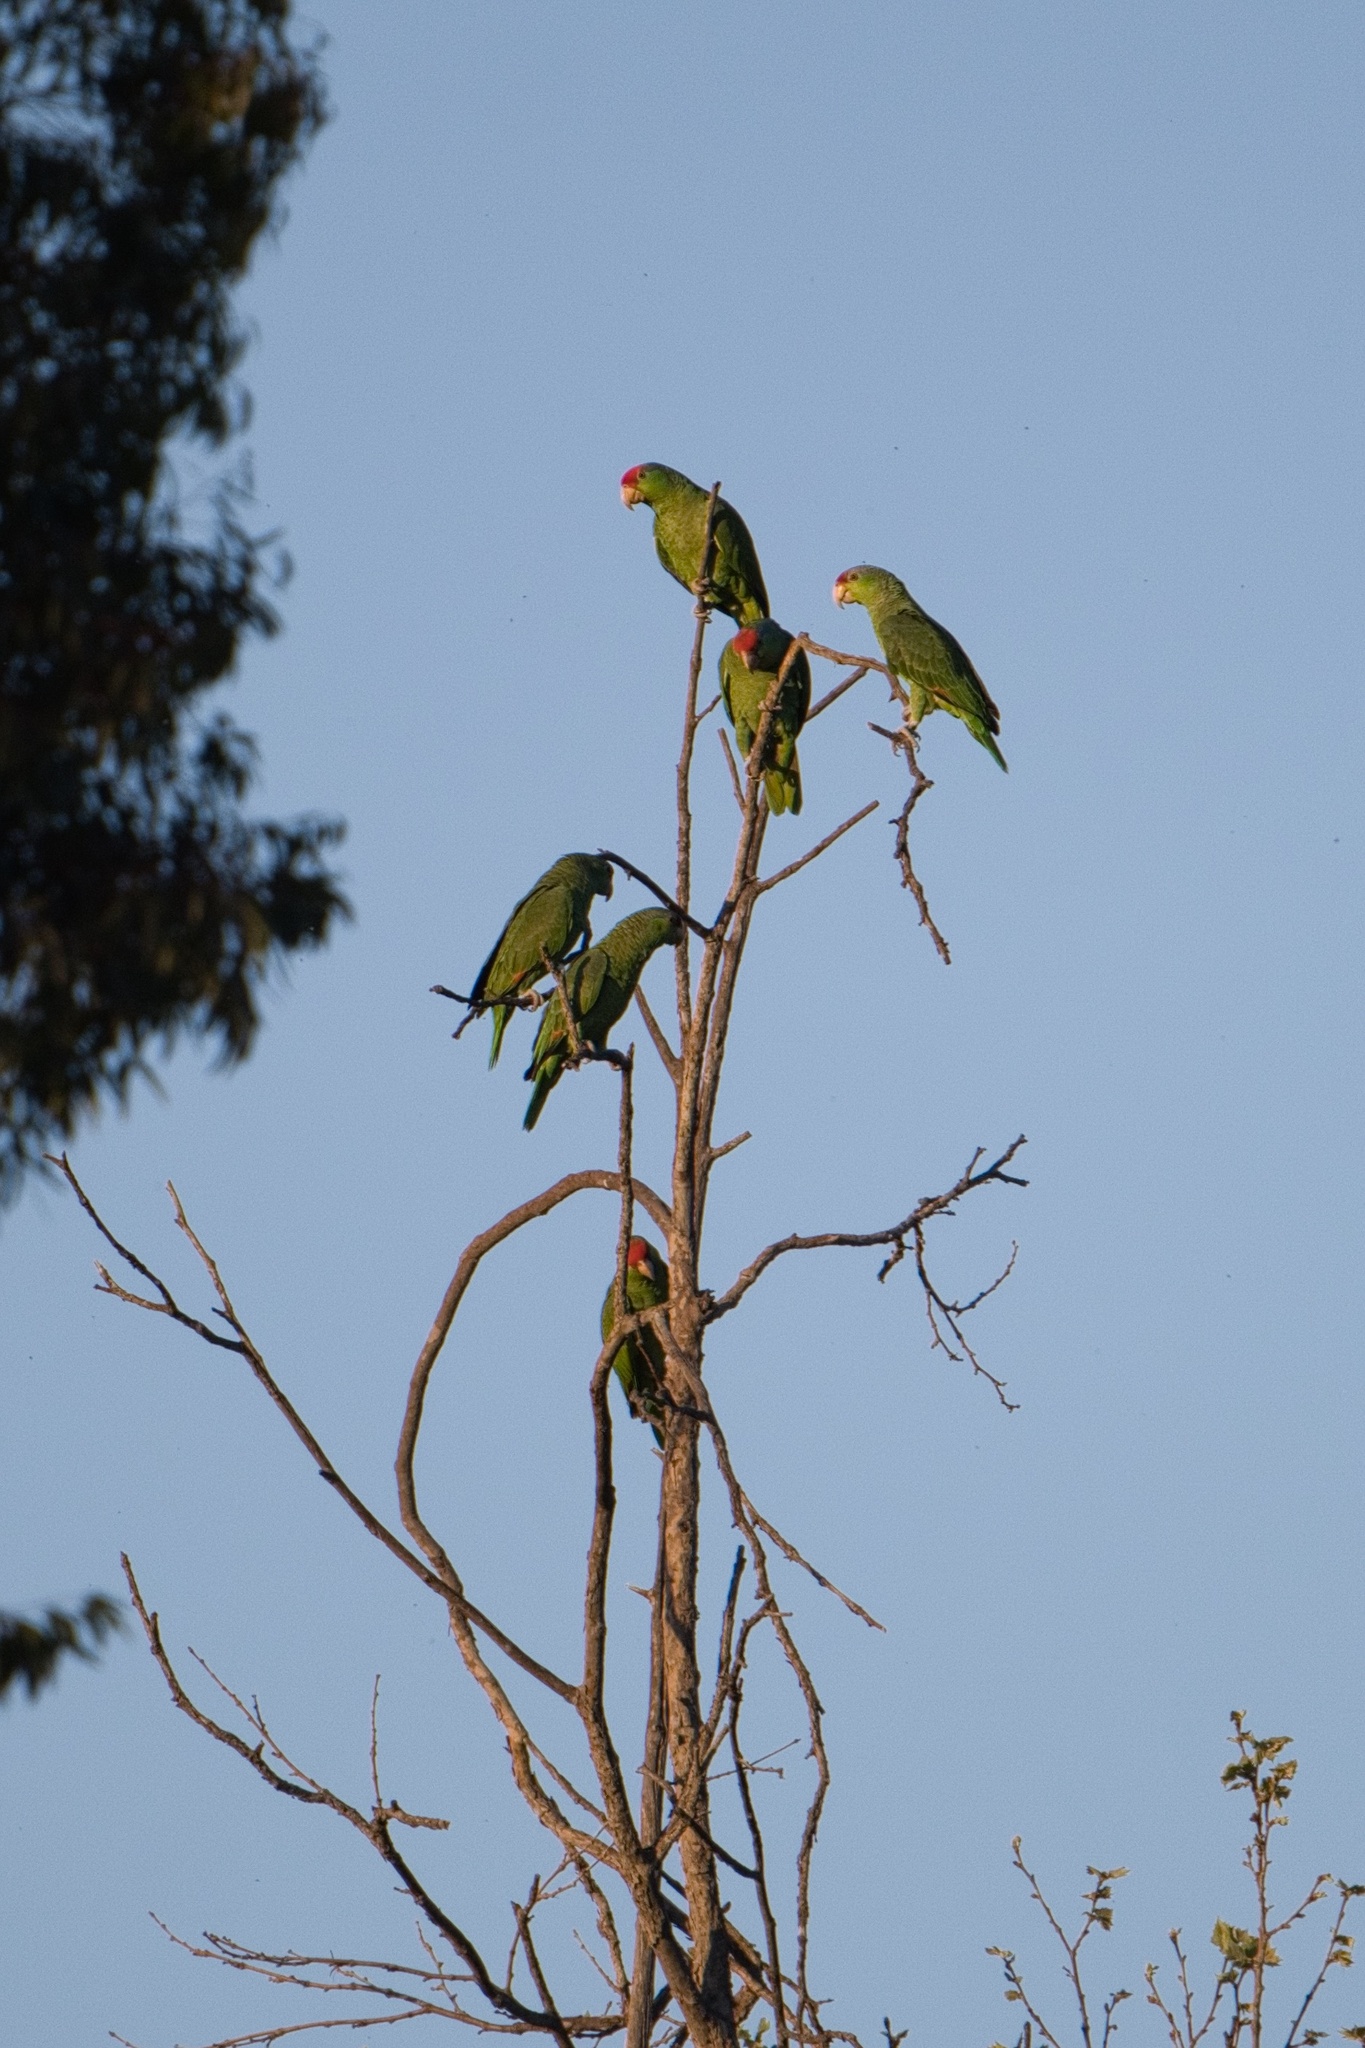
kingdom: Animalia
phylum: Chordata
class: Aves
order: Psittaciformes
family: Psittacidae
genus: Amazona
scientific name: Amazona viridigenalis
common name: Red-crowned amazon
